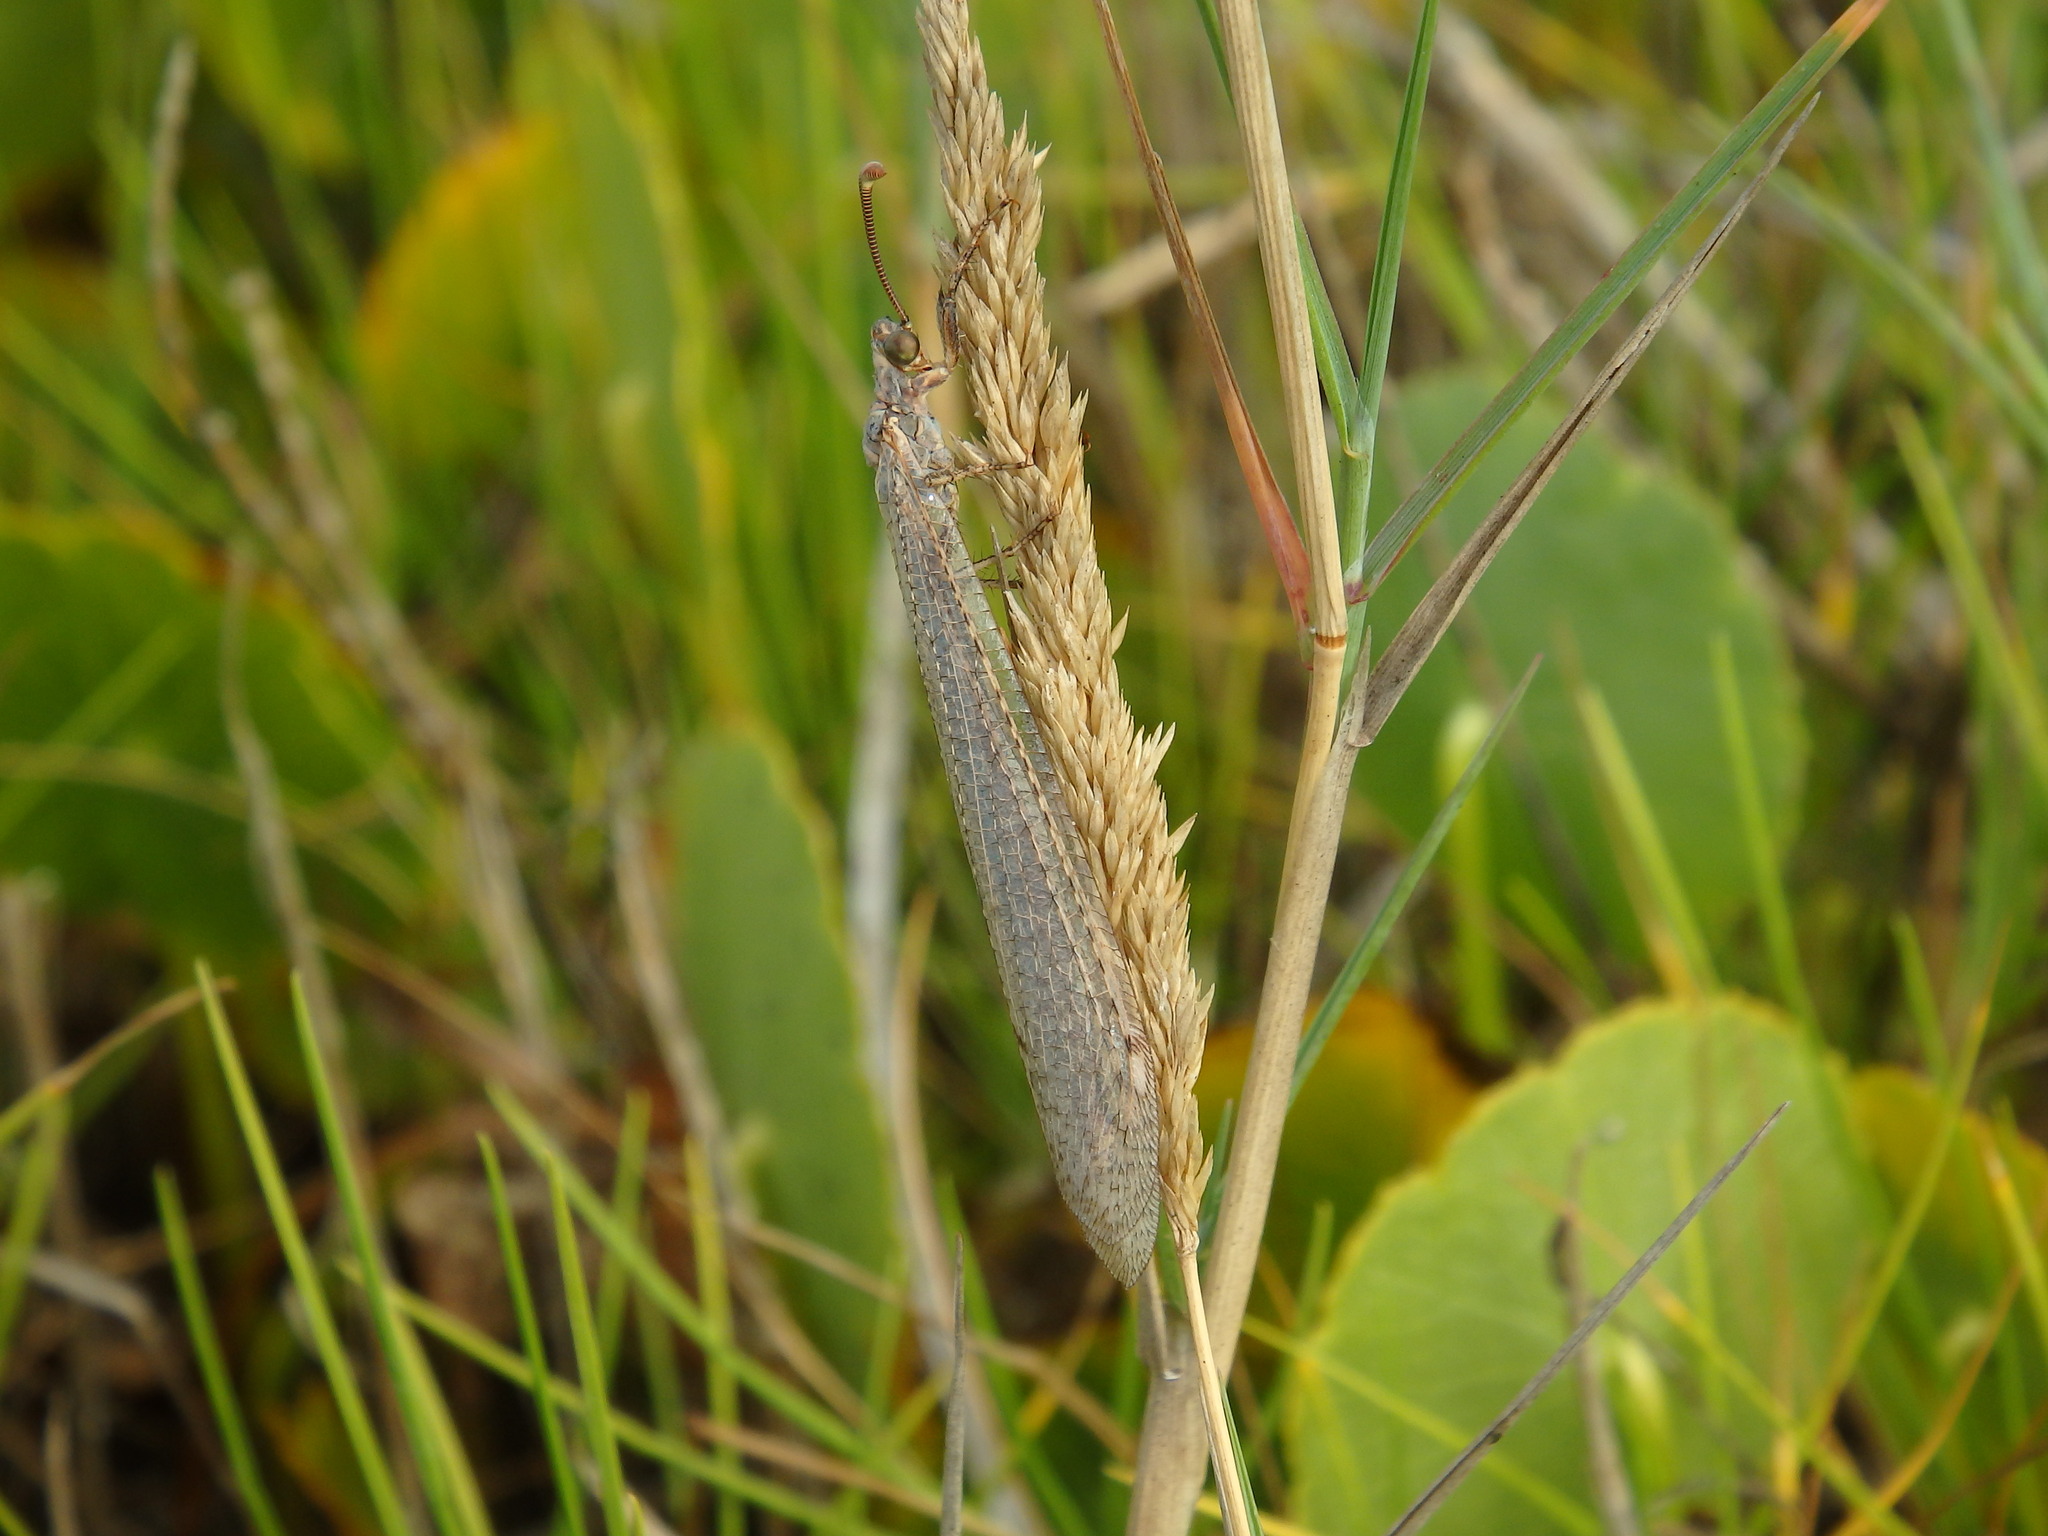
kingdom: Animalia
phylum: Arthropoda
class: Insecta
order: Neuroptera
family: Myrmeleontidae
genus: Creoleon
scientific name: Creoleon lugdunensis
